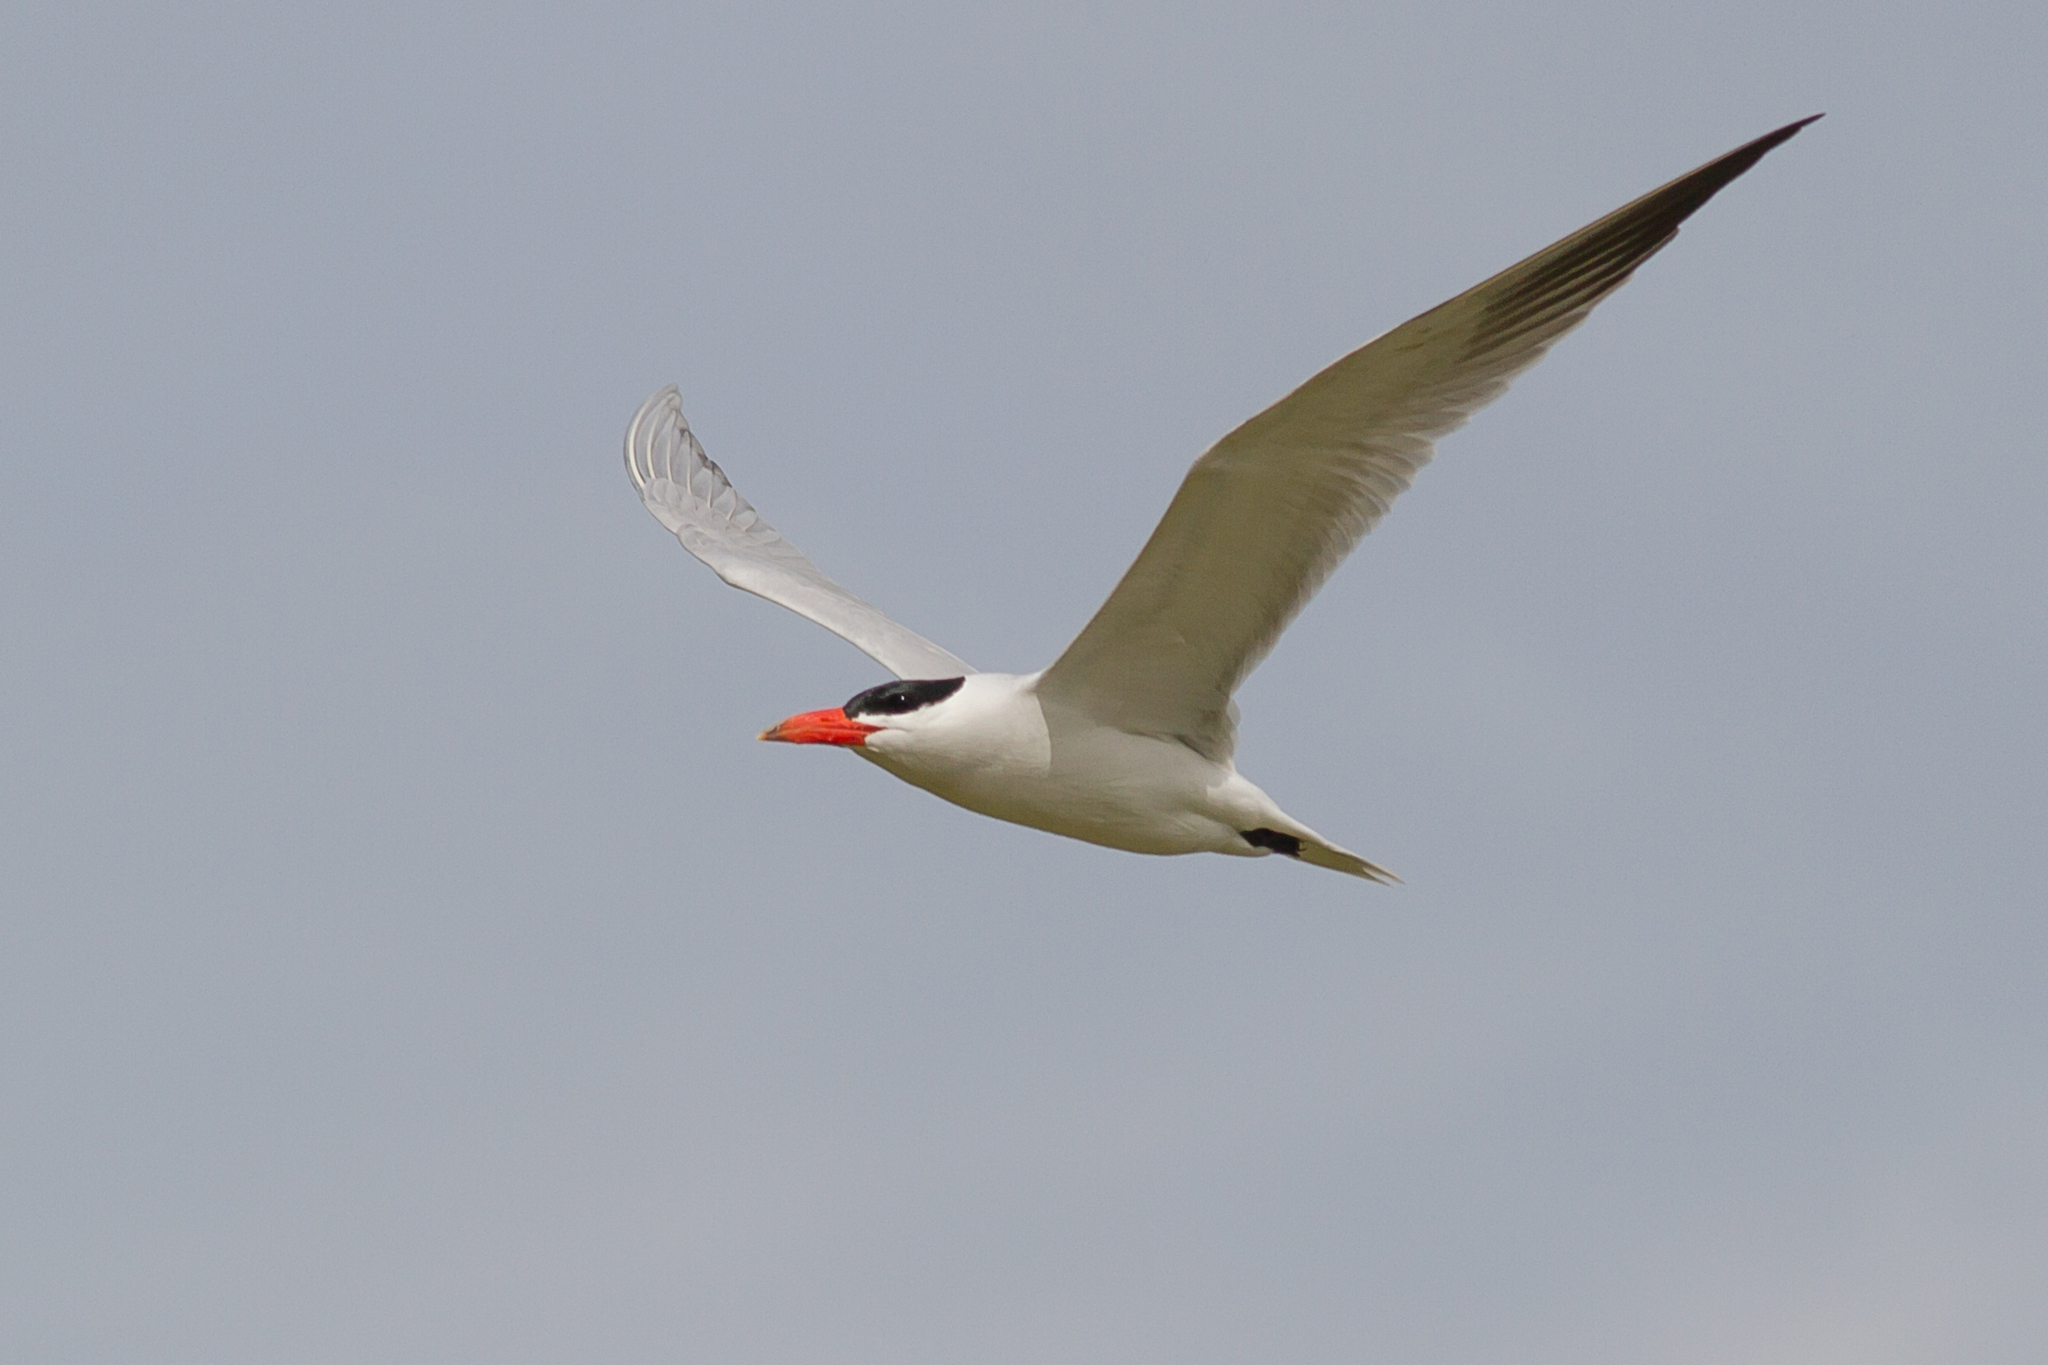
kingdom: Animalia
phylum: Chordata
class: Aves
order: Charadriiformes
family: Laridae
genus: Hydroprogne
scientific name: Hydroprogne caspia
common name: Caspian tern
